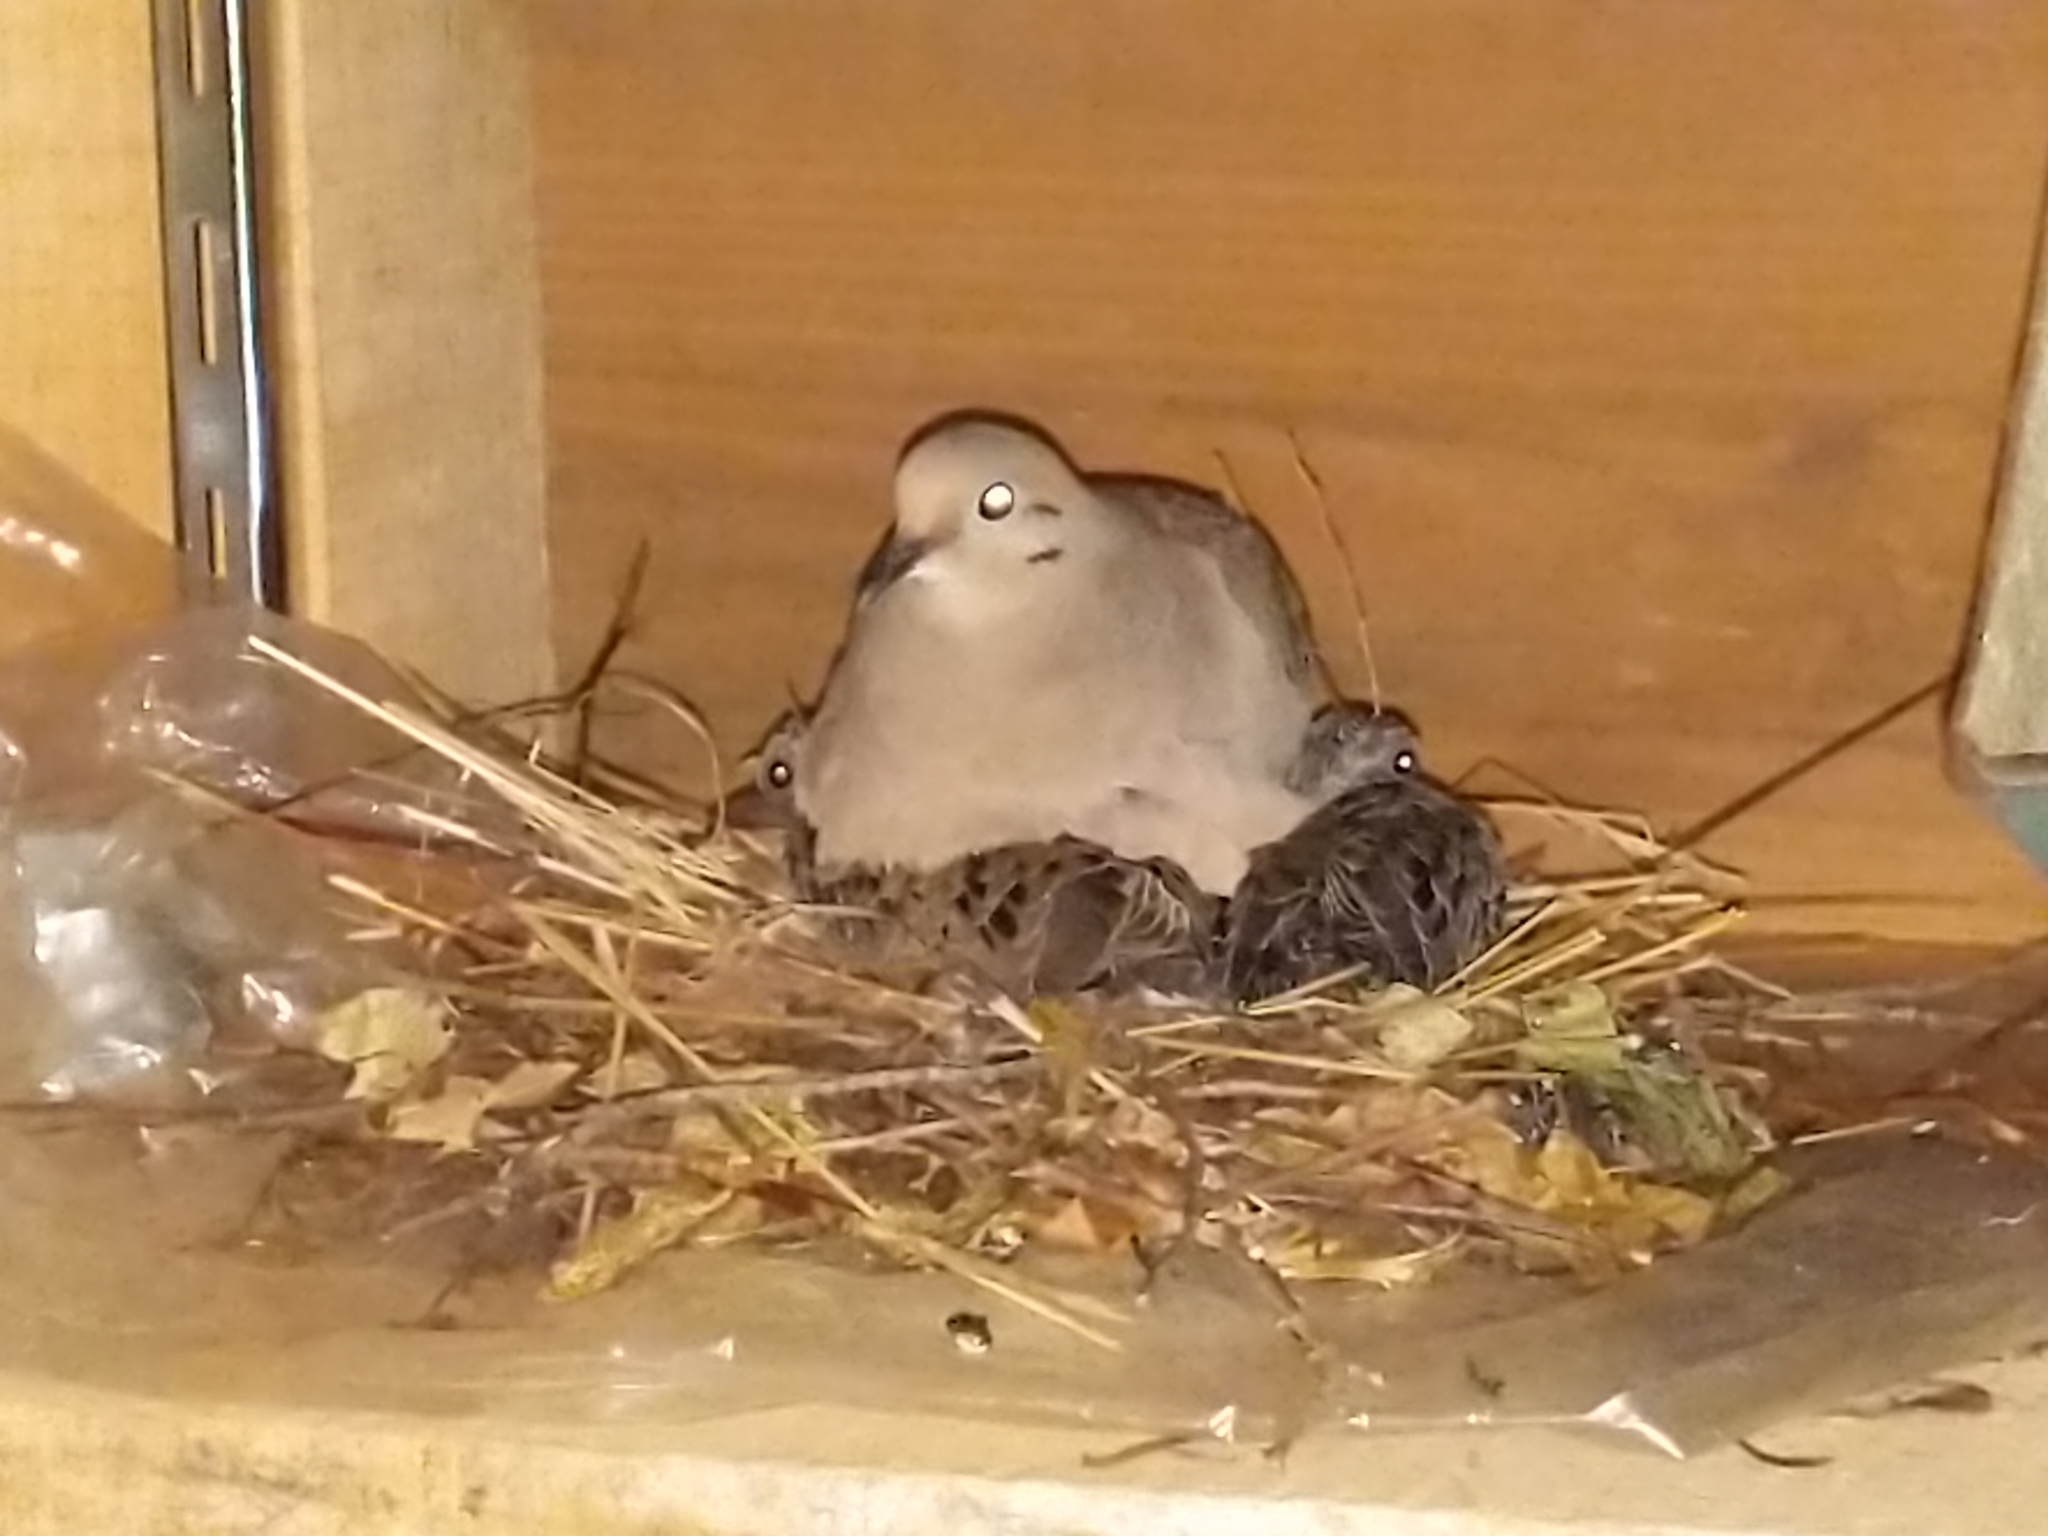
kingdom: Animalia
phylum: Chordata
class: Aves
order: Columbiformes
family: Columbidae
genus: Zenaida
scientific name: Zenaida macroura
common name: Mourning dove
